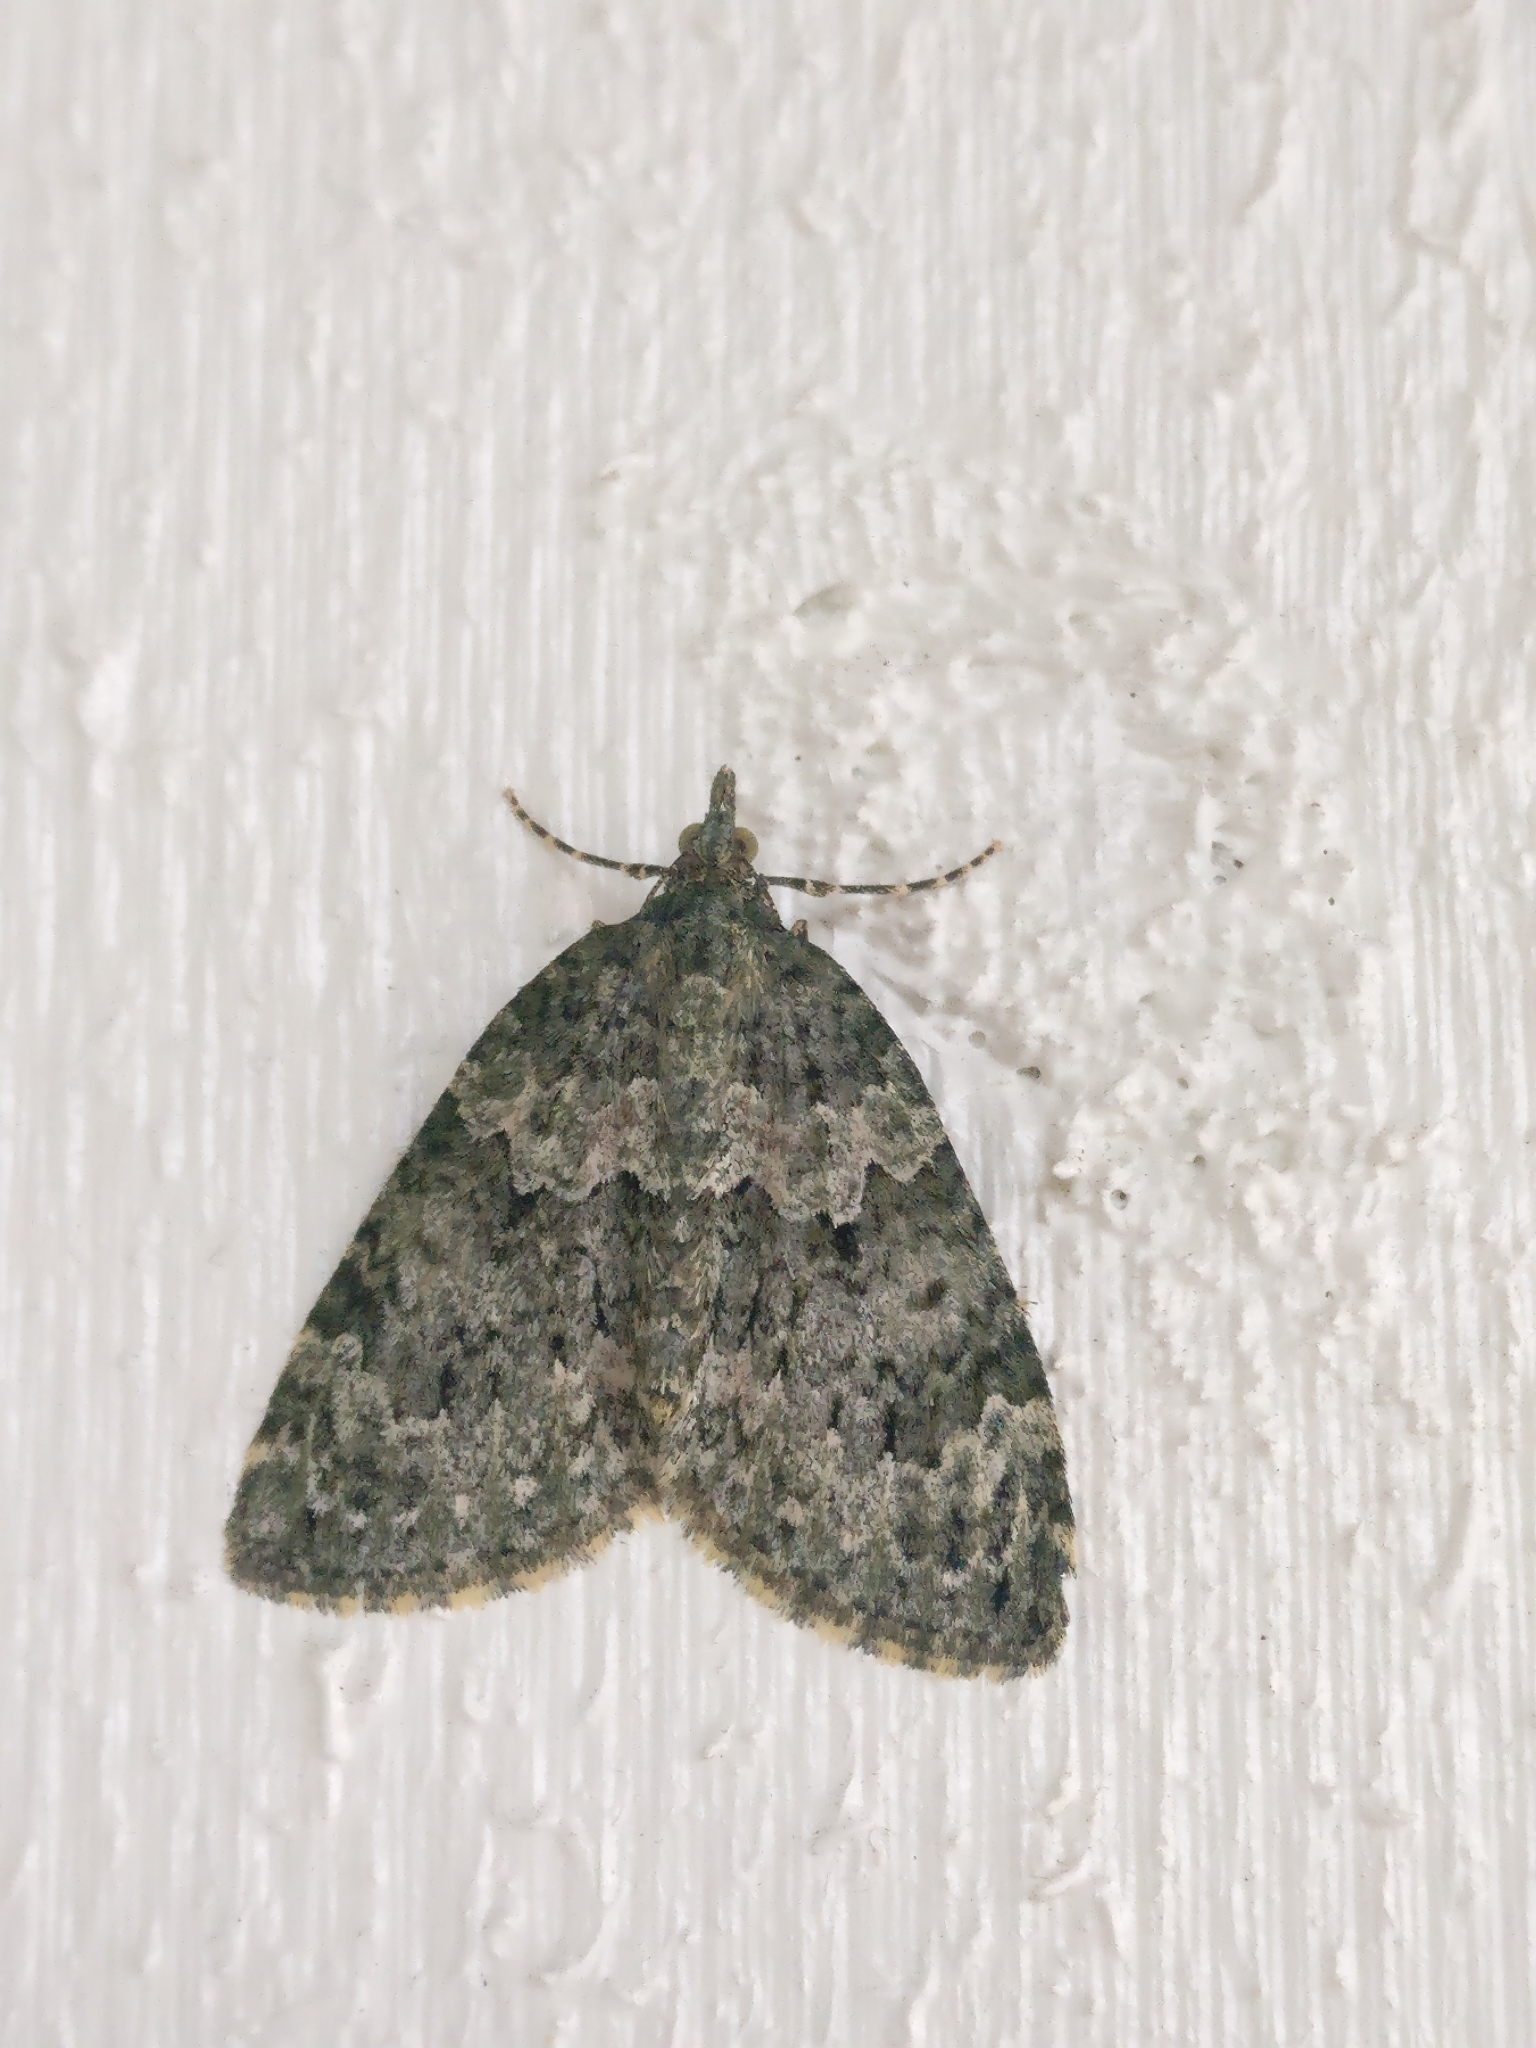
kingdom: Animalia
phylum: Arthropoda
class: Insecta
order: Lepidoptera
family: Geometridae
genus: Chloroclysta
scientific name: Chloroclysta miata
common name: Autumn green carpet
